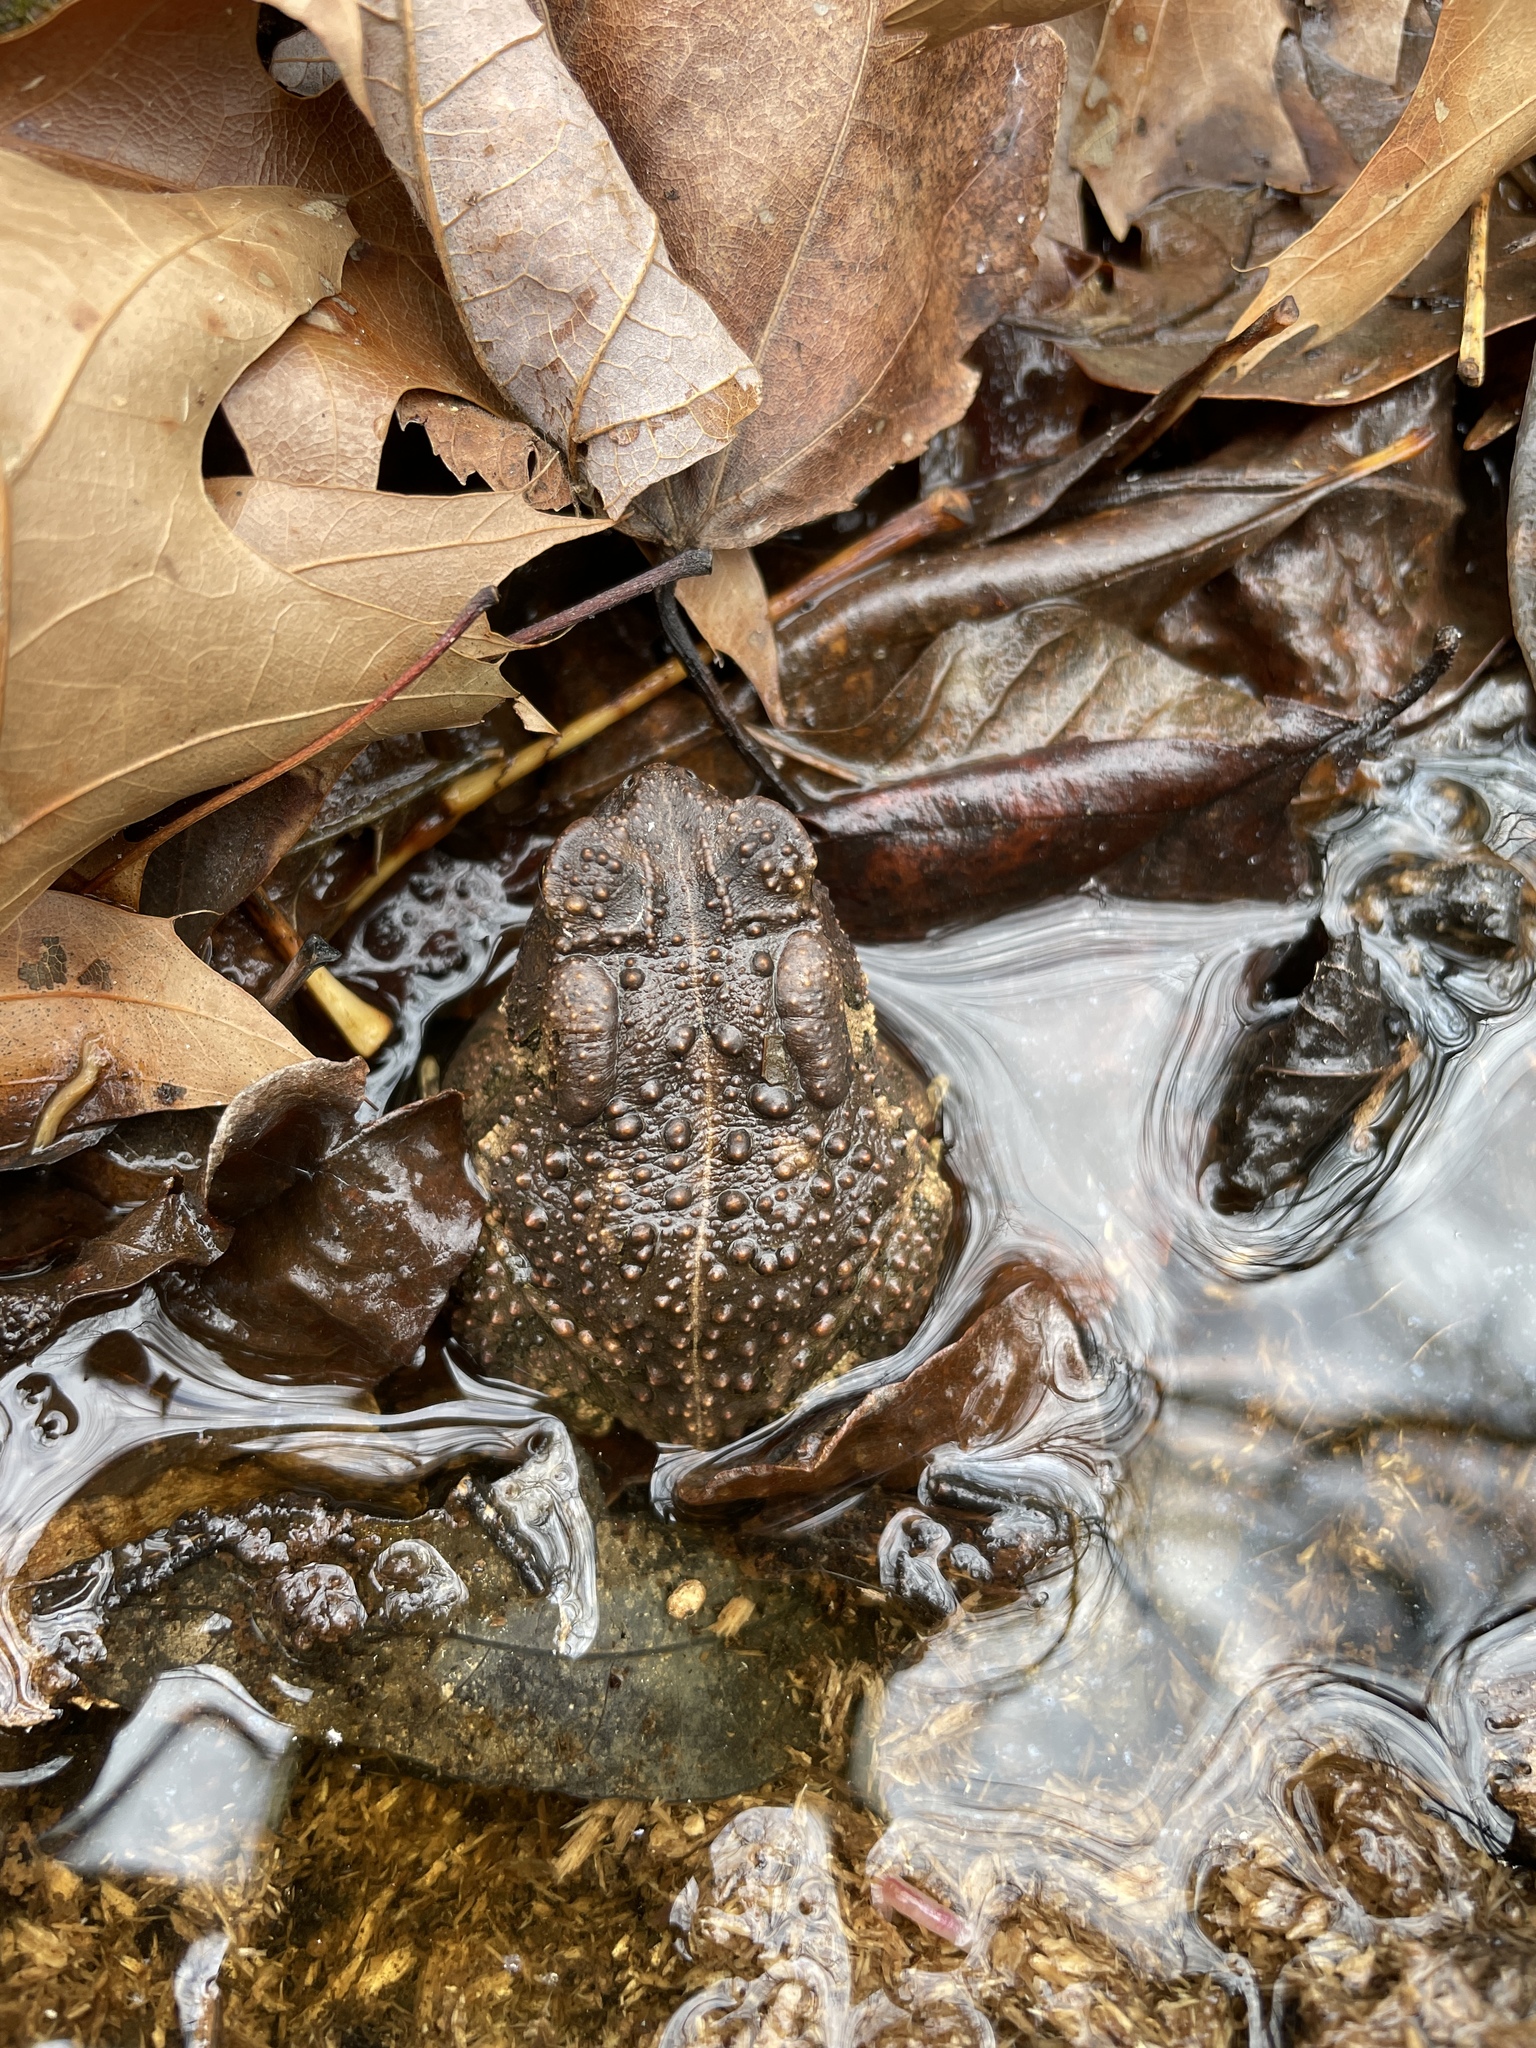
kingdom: Animalia
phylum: Chordata
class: Amphibia
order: Anura
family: Bufonidae
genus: Anaxyrus
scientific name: Anaxyrus americanus
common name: American toad
